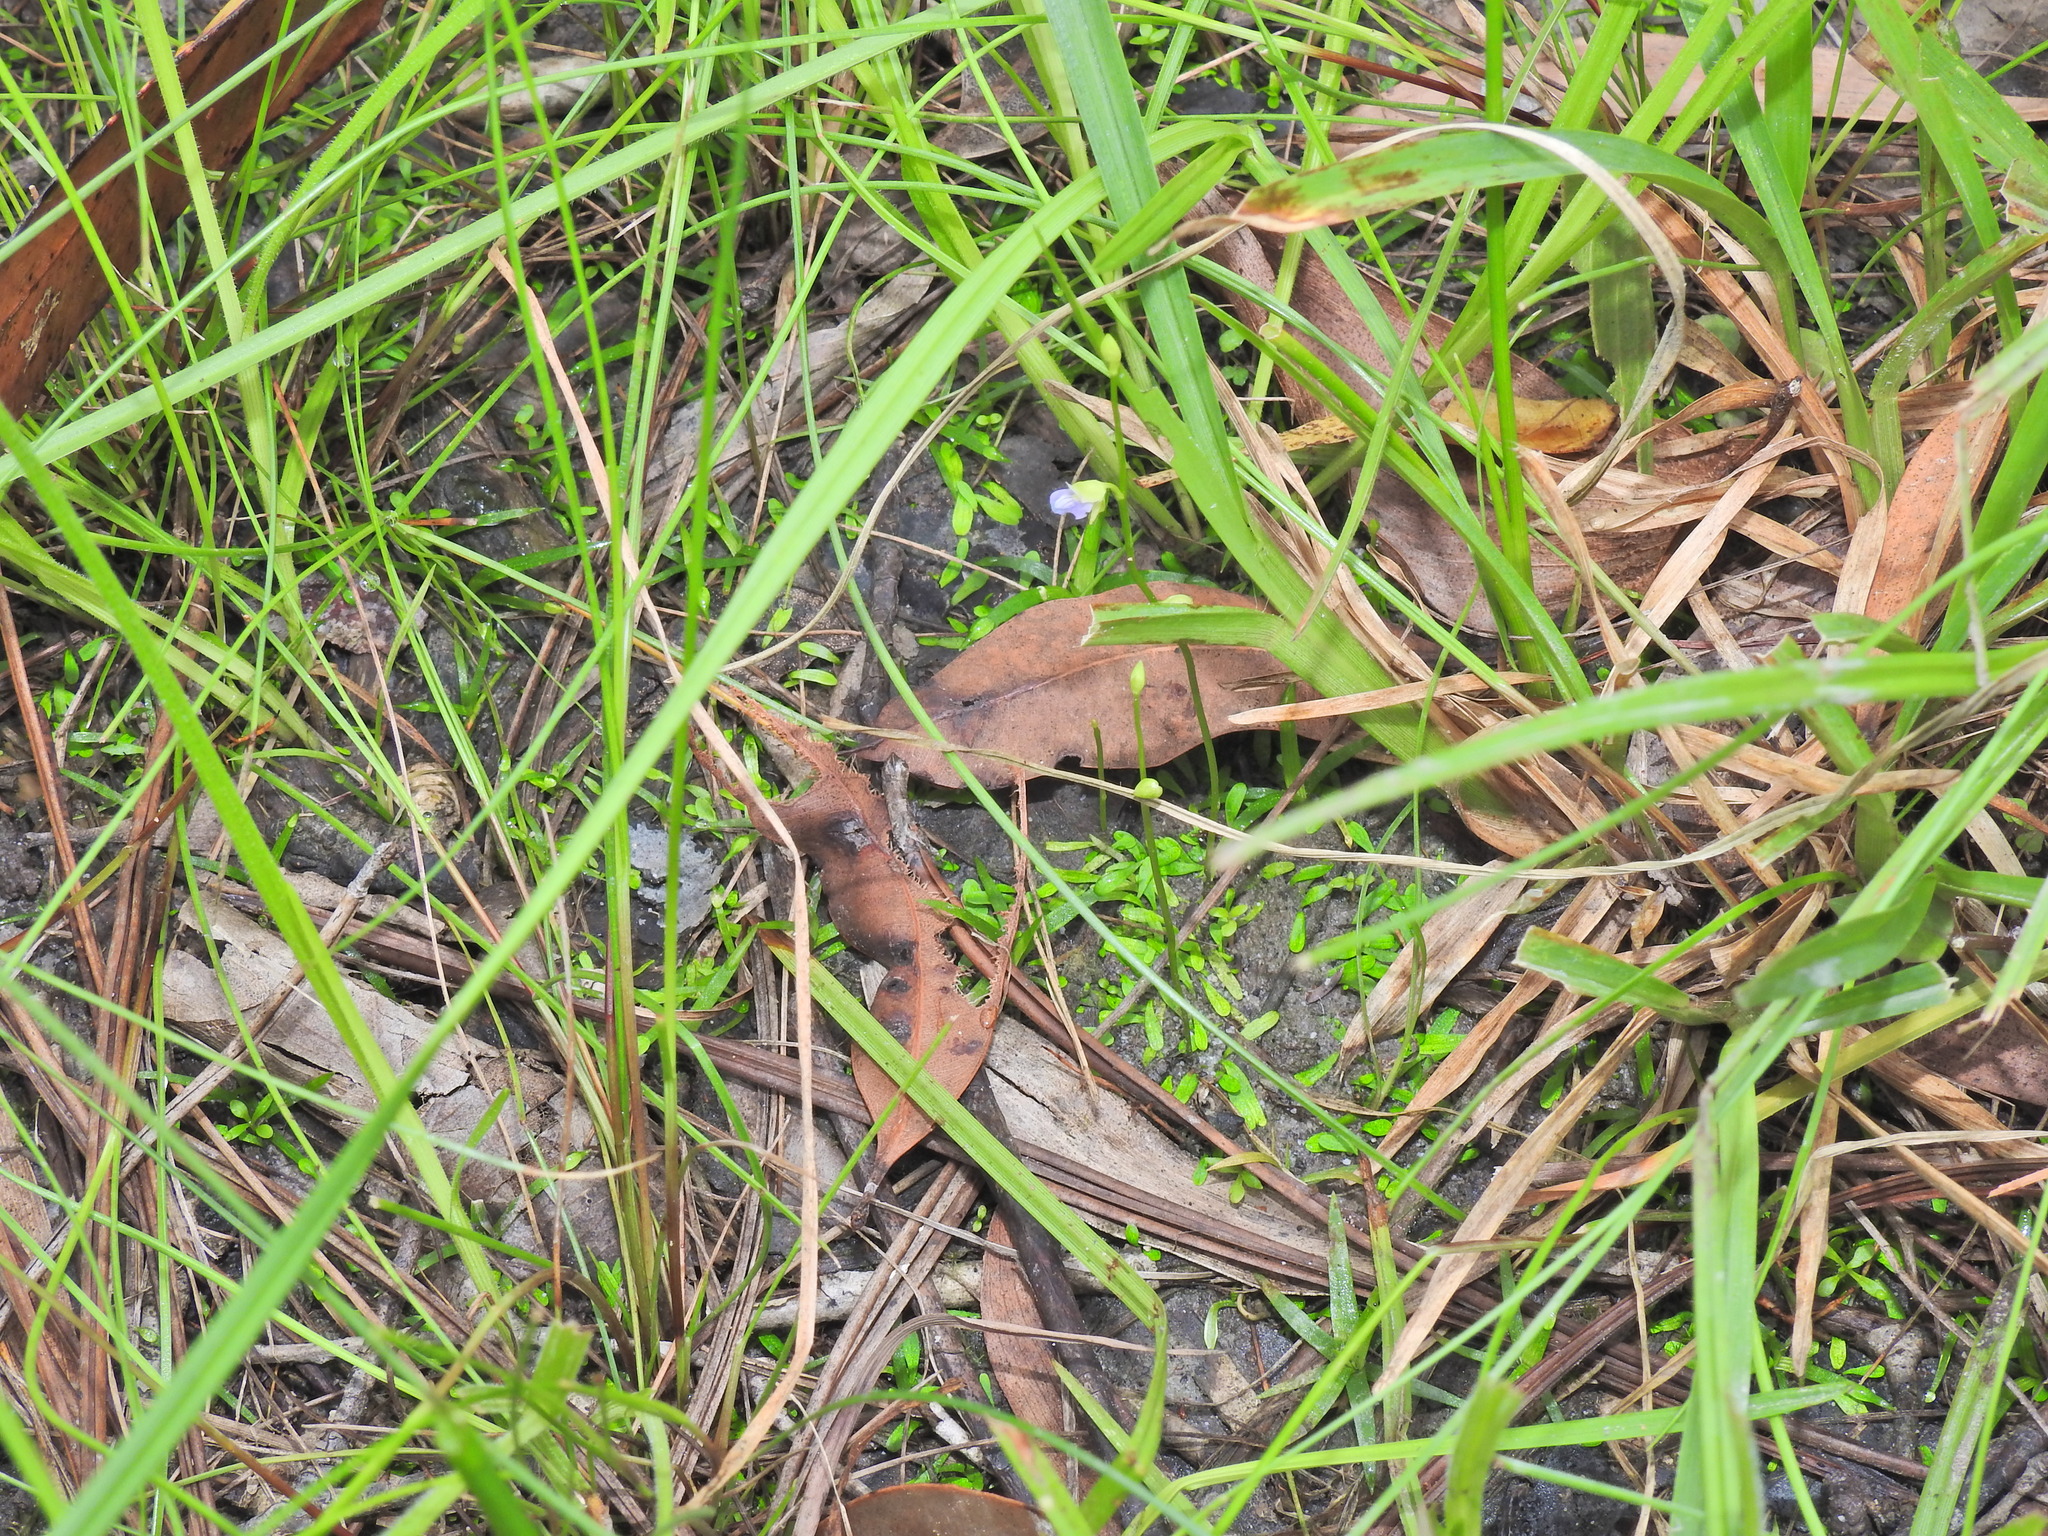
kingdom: Plantae
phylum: Tracheophyta
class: Magnoliopsida
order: Lamiales
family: Lentibulariaceae
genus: Utricularia
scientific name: Utricularia uliginosa
